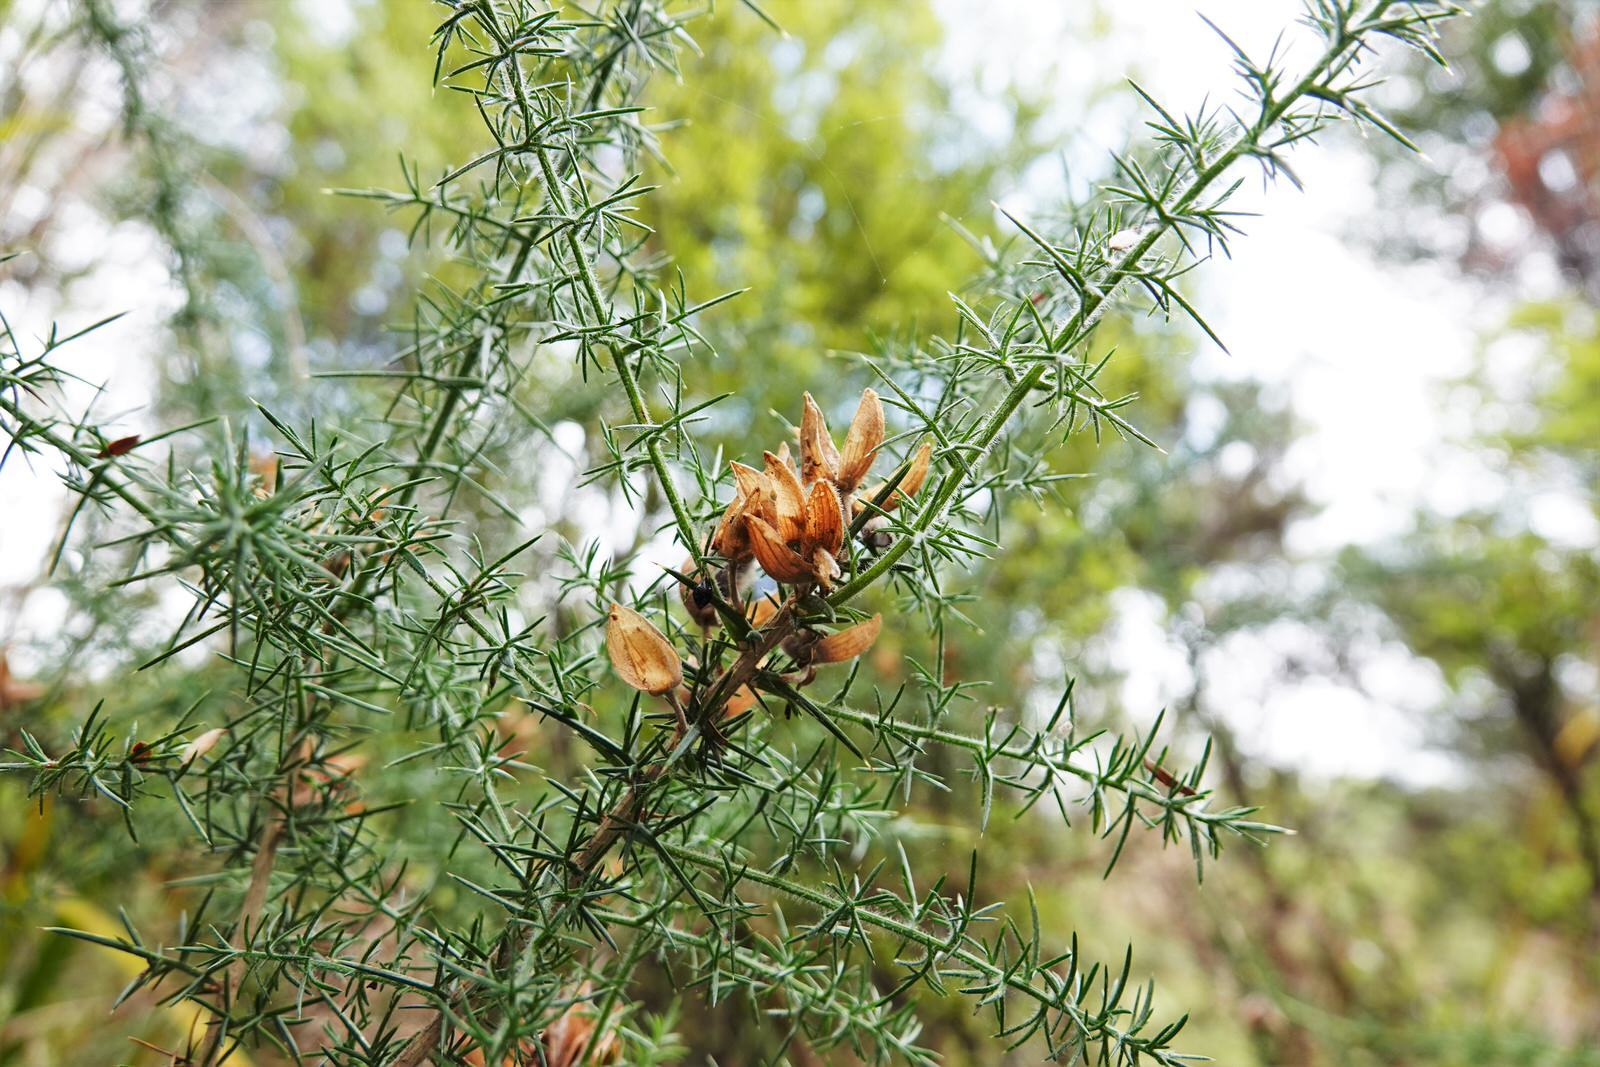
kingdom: Plantae
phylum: Tracheophyta
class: Magnoliopsida
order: Fabales
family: Fabaceae
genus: Ulex
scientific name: Ulex europaeus
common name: Common gorse
